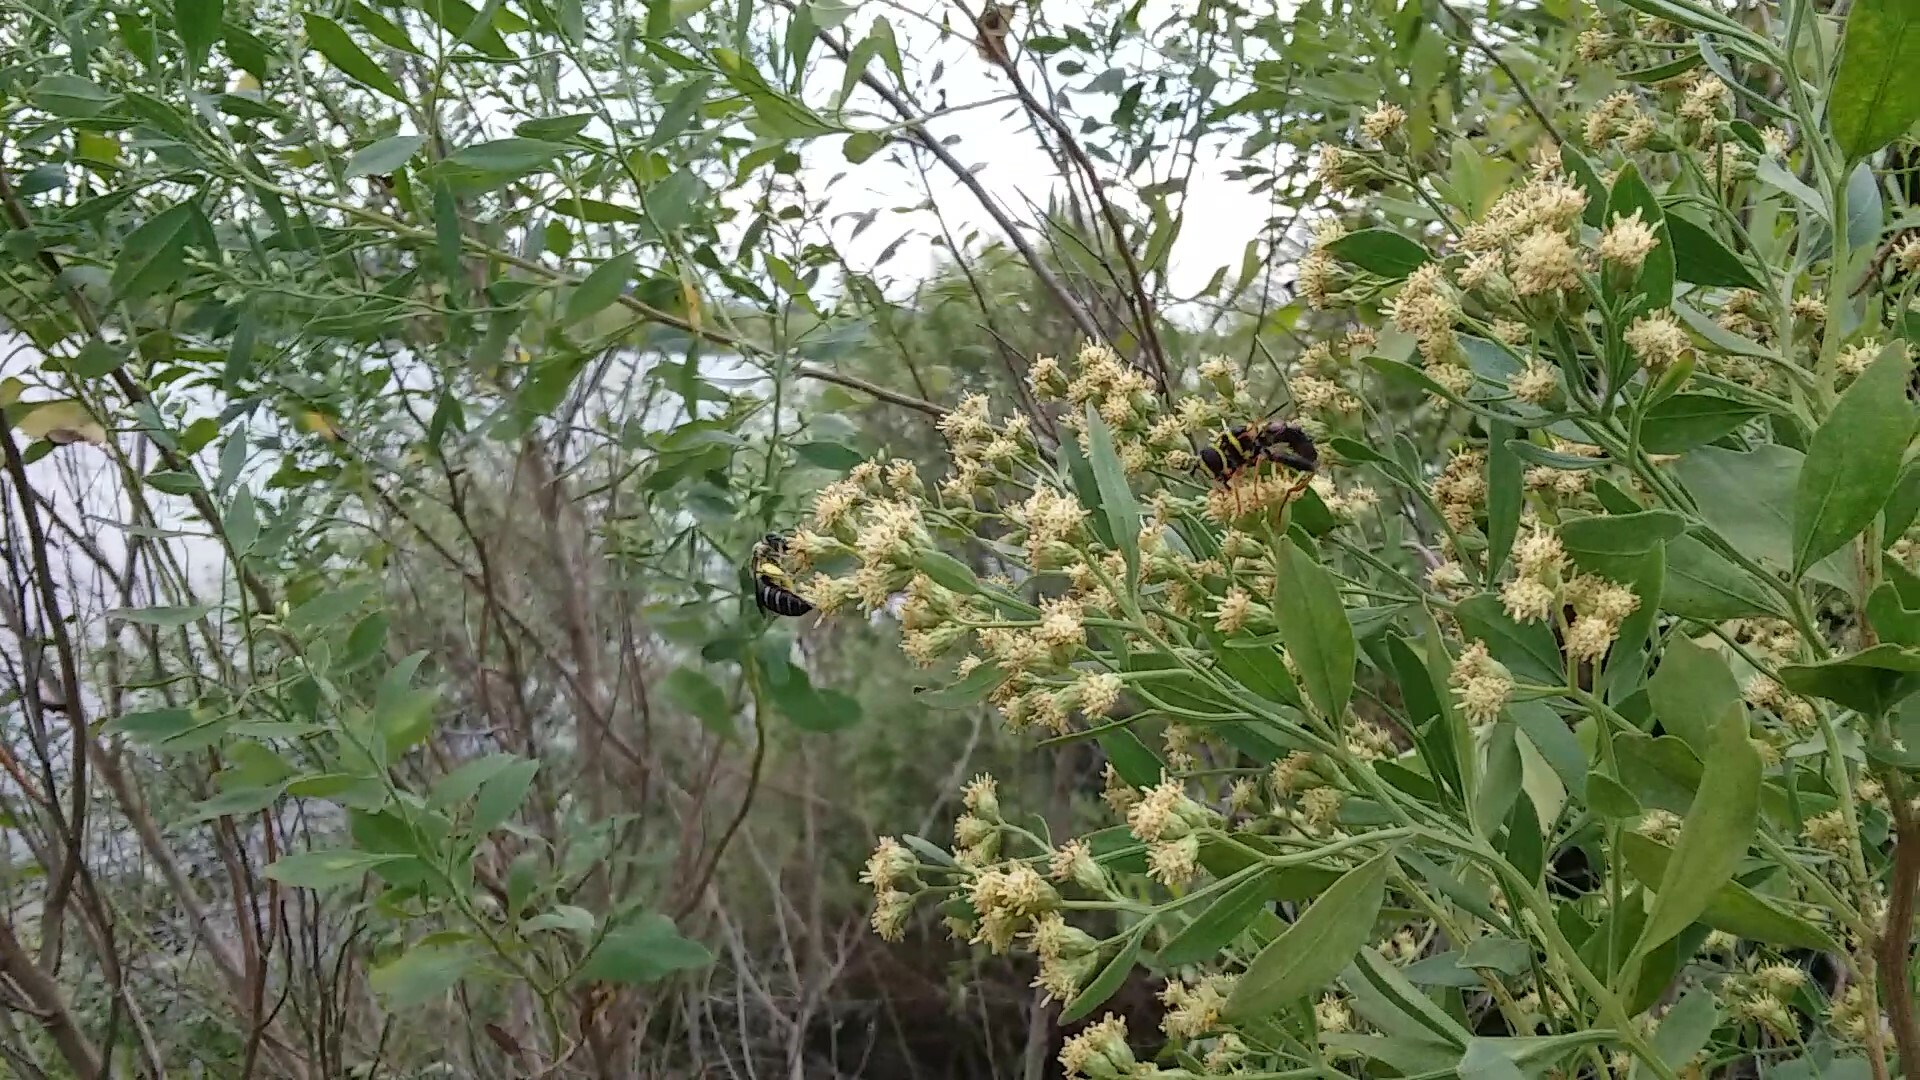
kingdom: Animalia
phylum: Arthropoda
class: Insecta
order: Diptera
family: Syrphidae
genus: Meromacrus
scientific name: Meromacrus acutus
